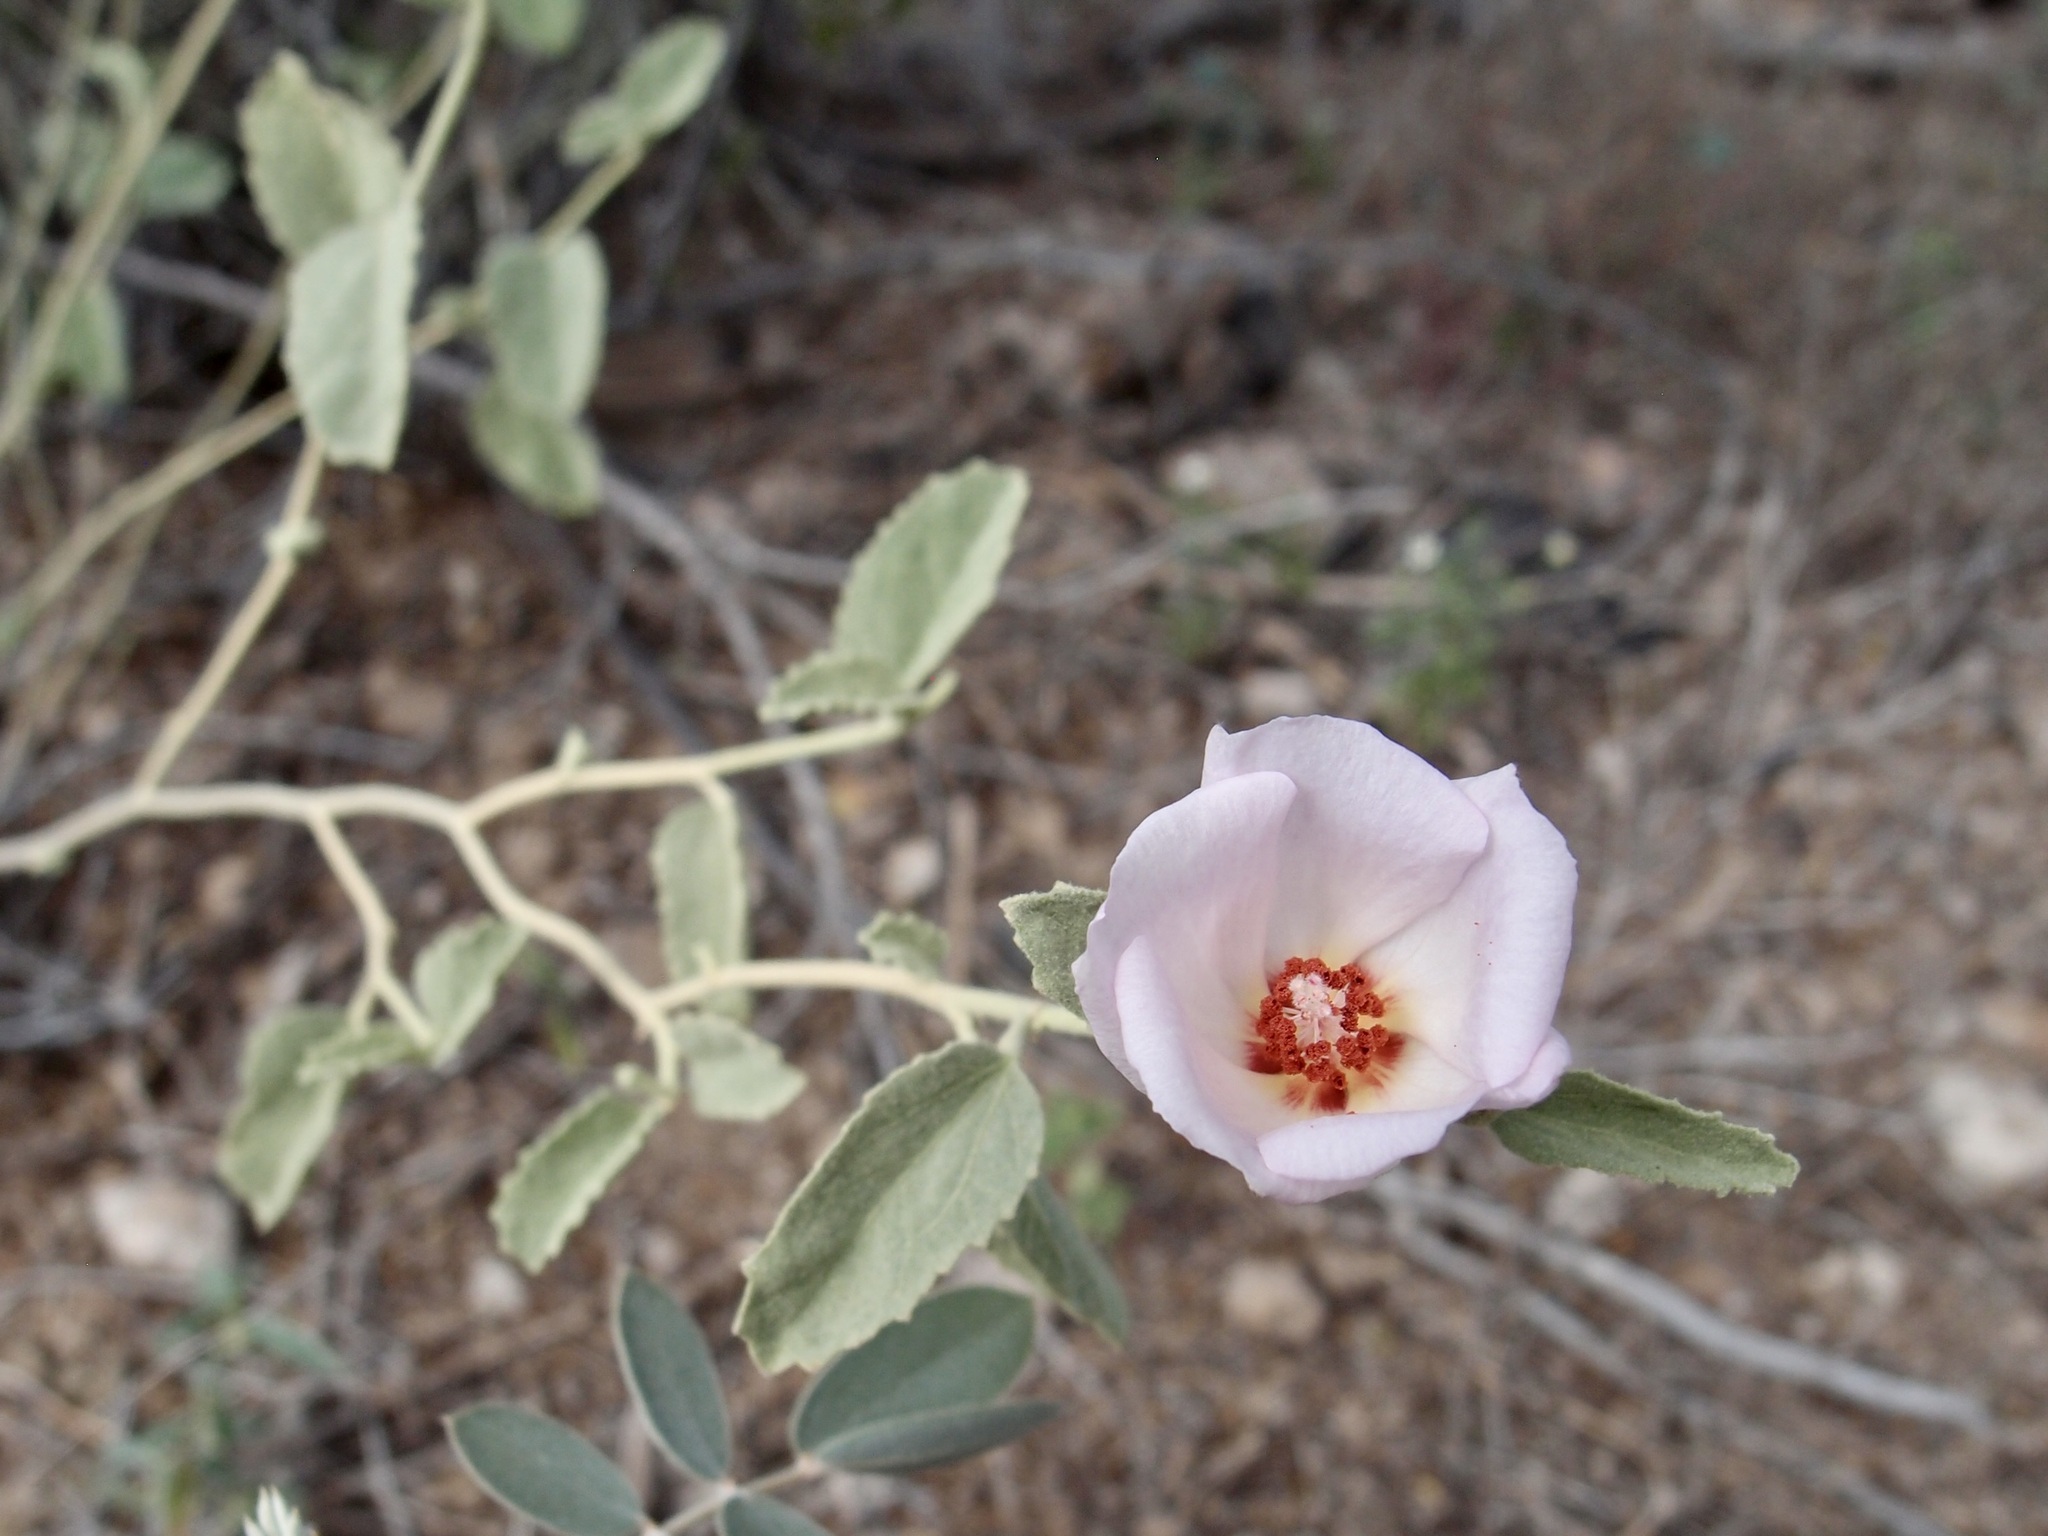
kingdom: Plantae
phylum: Tracheophyta
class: Magnoliopsida
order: Malvales
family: Malvaceae
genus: Hibiscus
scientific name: Hibiscus denudatus
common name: Paleface
